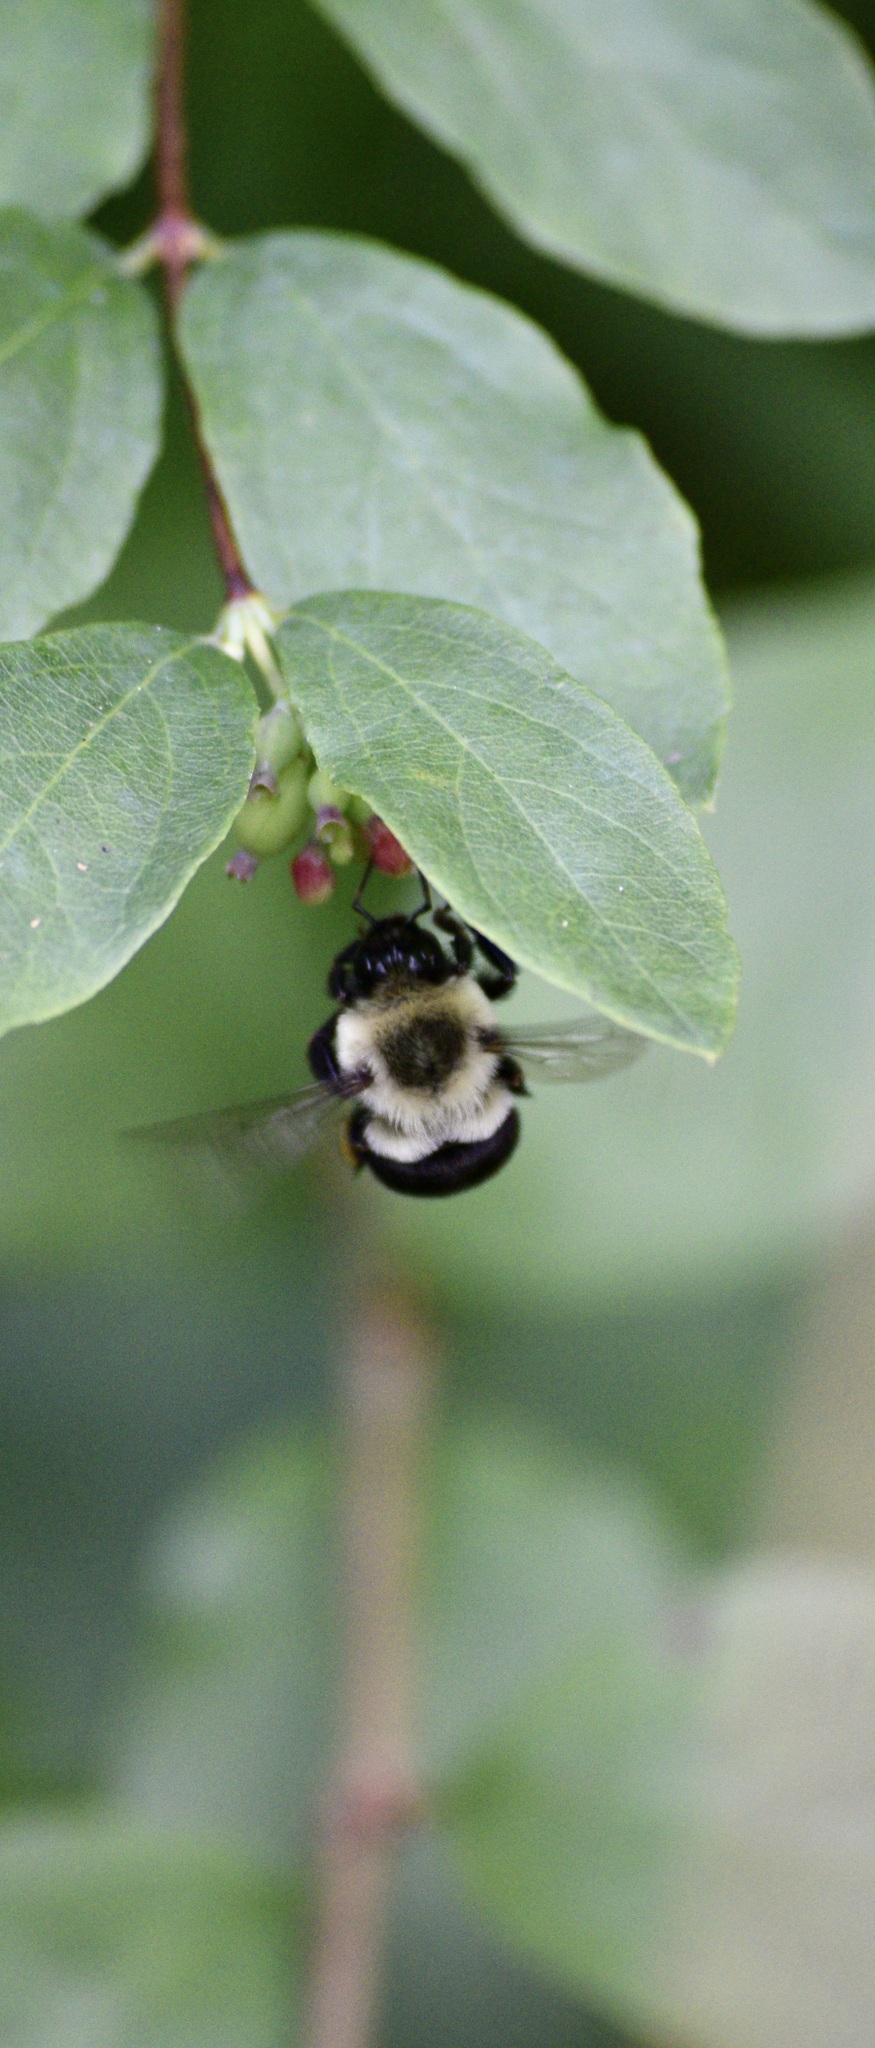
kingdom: Animalia
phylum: Arthropoda
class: Insecta
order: Hymenoptera
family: Apidae
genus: Bombus
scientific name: Bombus impatiens
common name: Common eastern bumble bee
